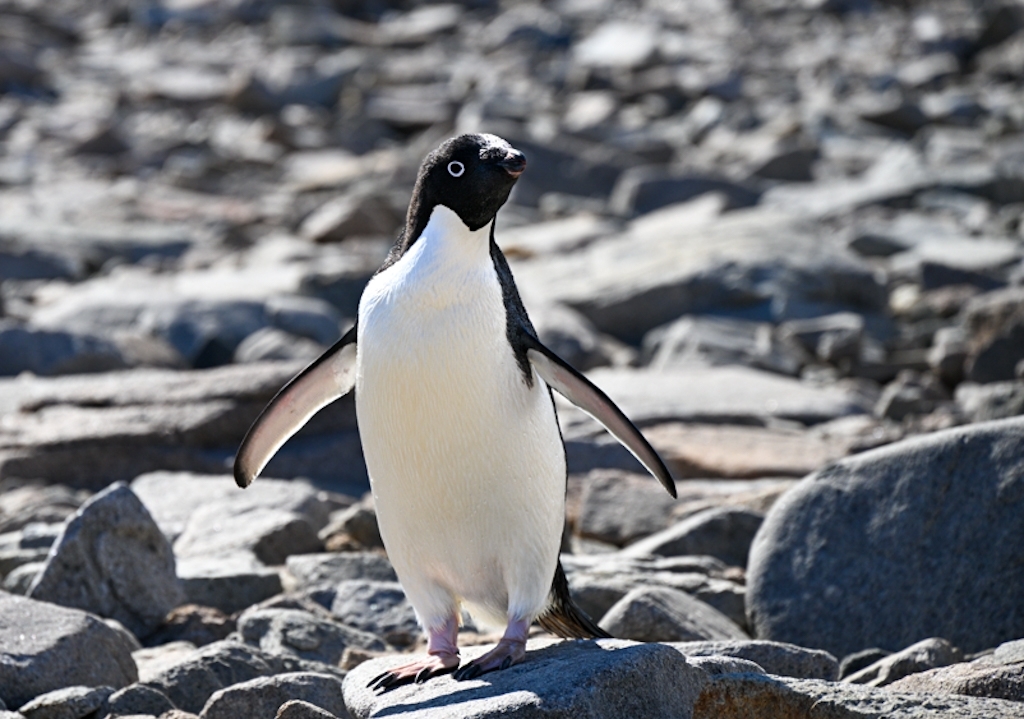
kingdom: Animalia
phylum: Chordata
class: Aves
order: Sphenisciformes
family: Spheniscidae
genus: Pygoscelis
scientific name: Pygoscelis adeliae
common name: Adelie penguin
